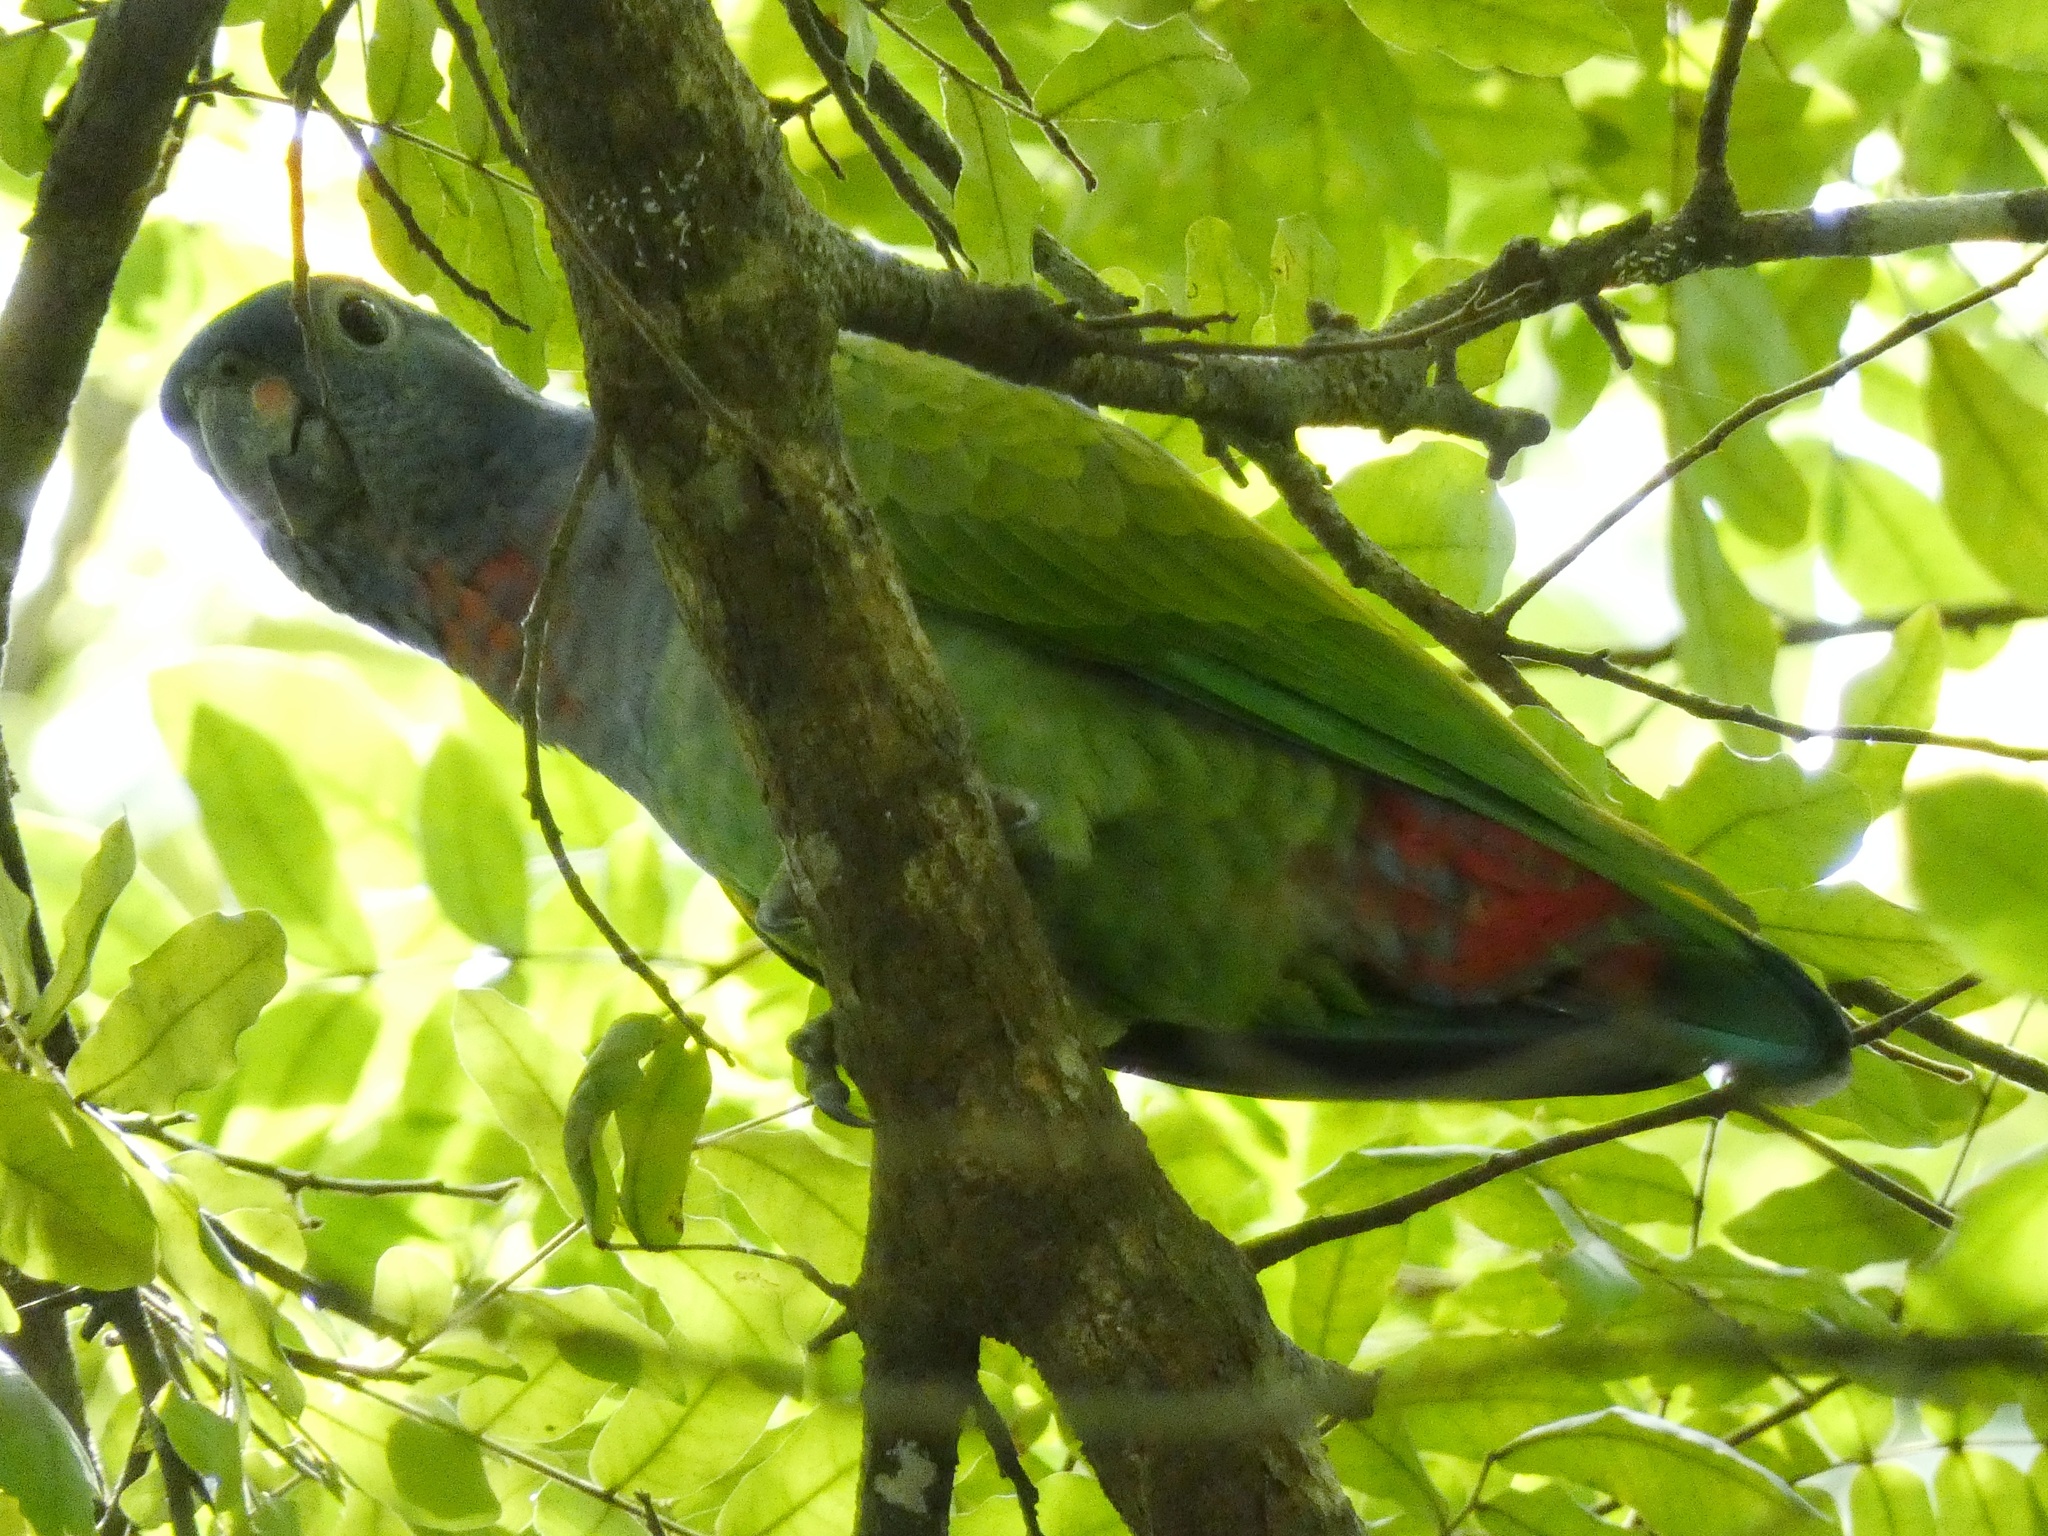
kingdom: Animalia
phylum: Chordata
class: Aves
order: Psittaciformes
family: Psittacidae
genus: Pionus
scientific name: Pionus menstruus
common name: Blue-headed parrot
